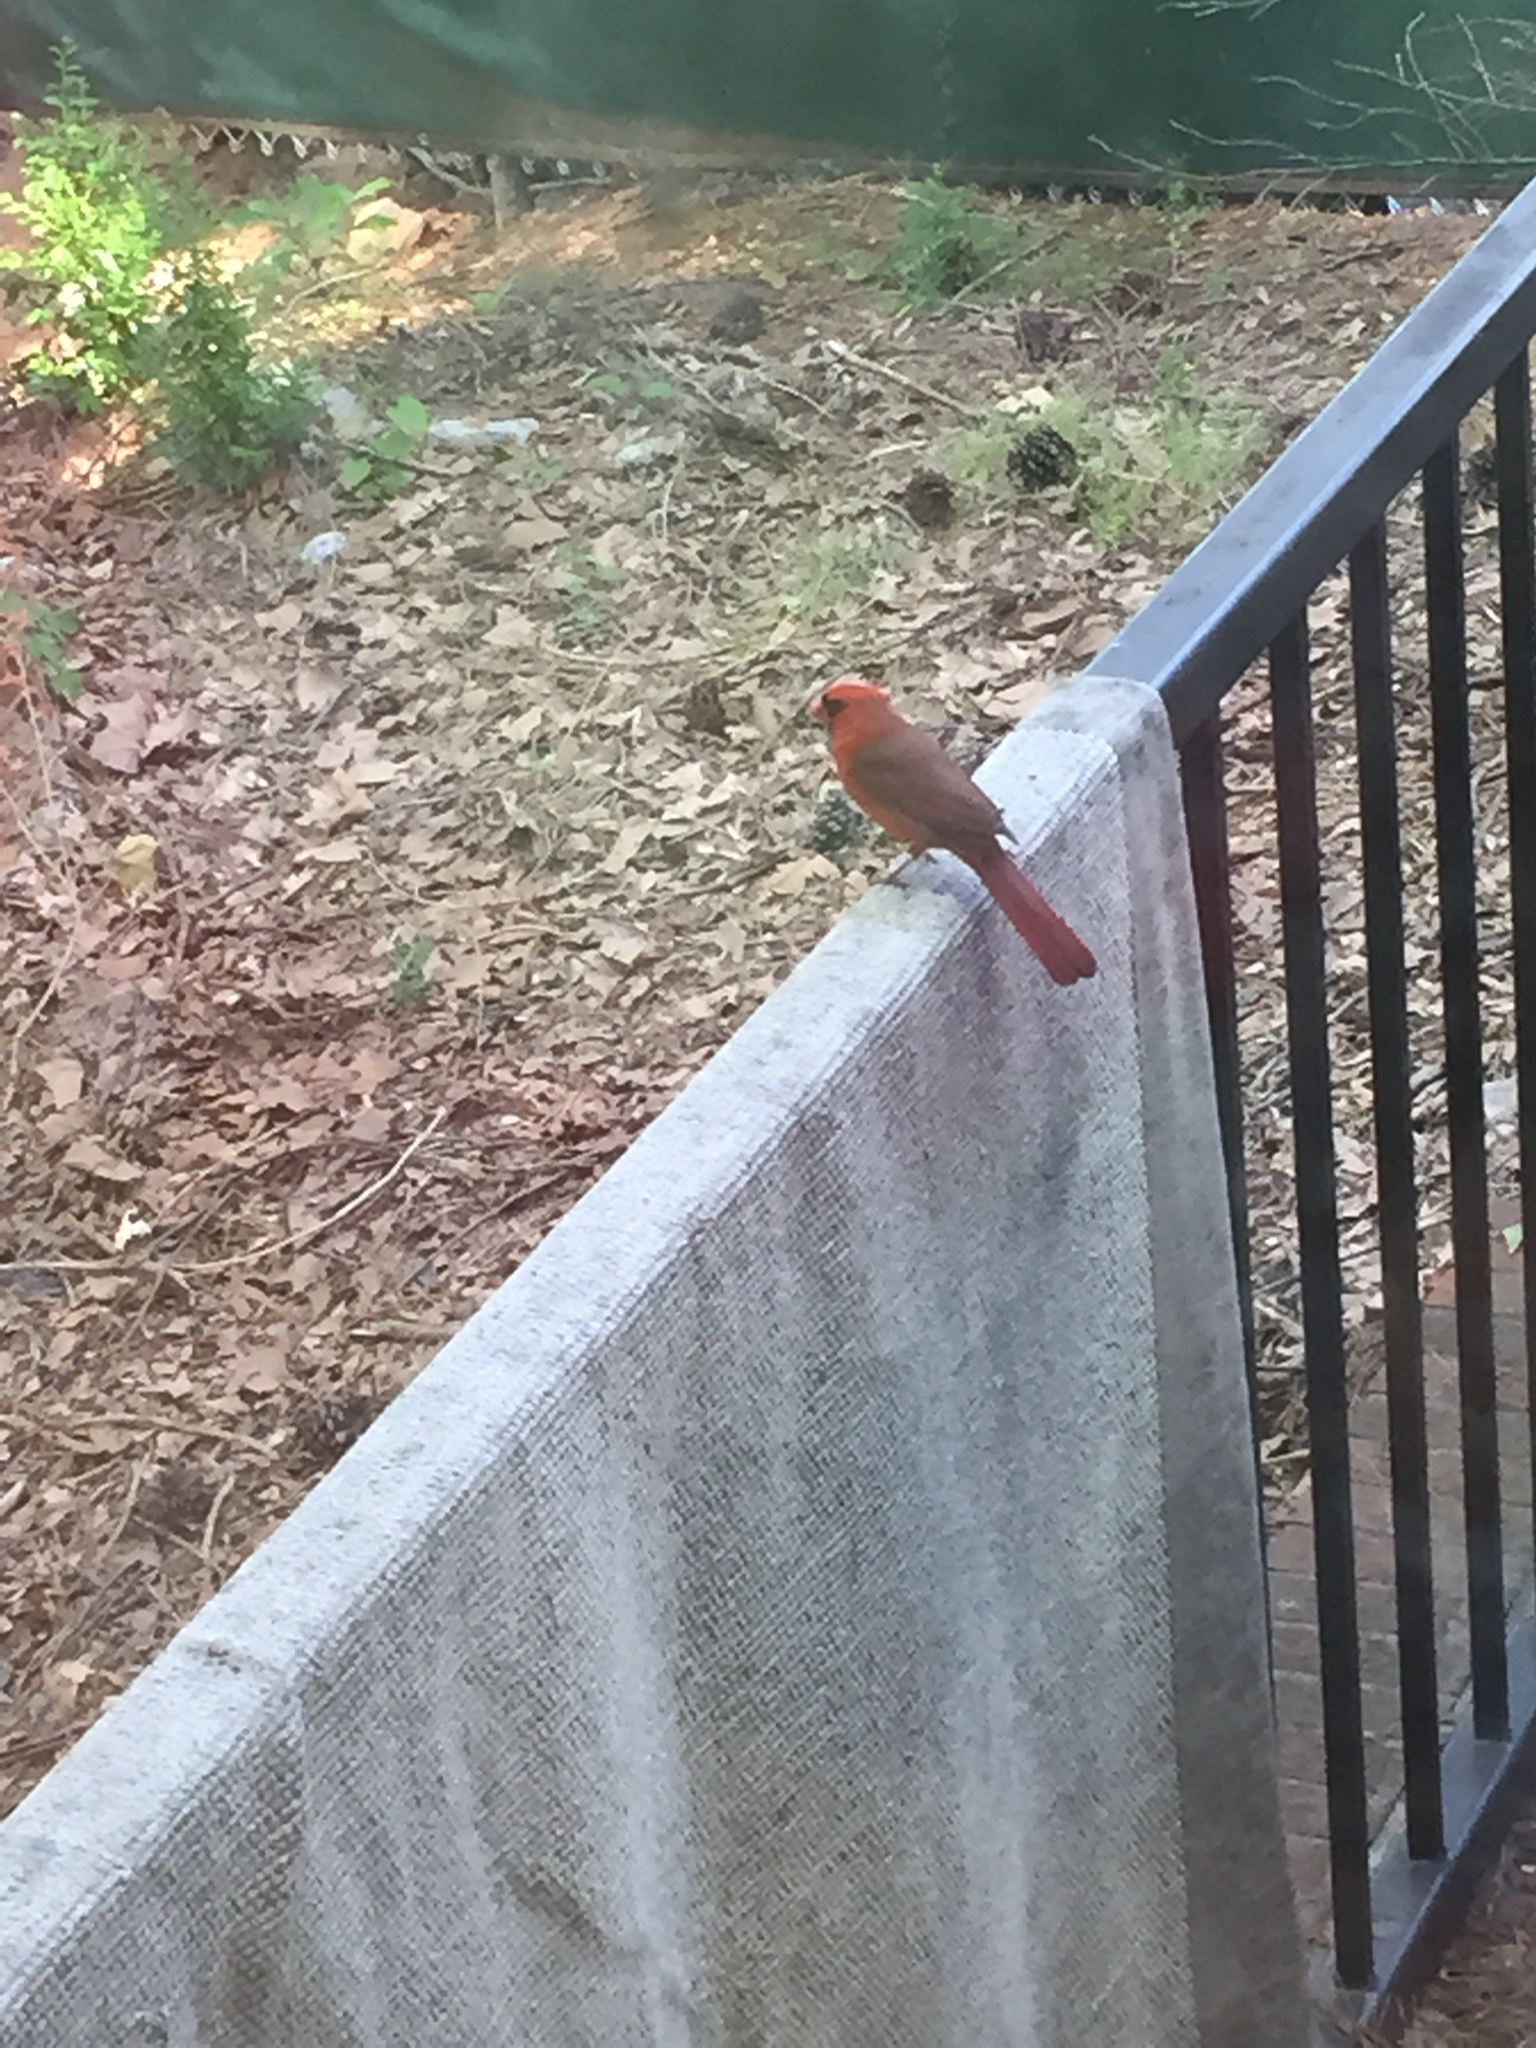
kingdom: Animalia
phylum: Chordata
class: Aves
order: Passeriformes
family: Cardinalidae
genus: Cardinalis
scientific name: Cardinalis cardinalis
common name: Northern cardinal
